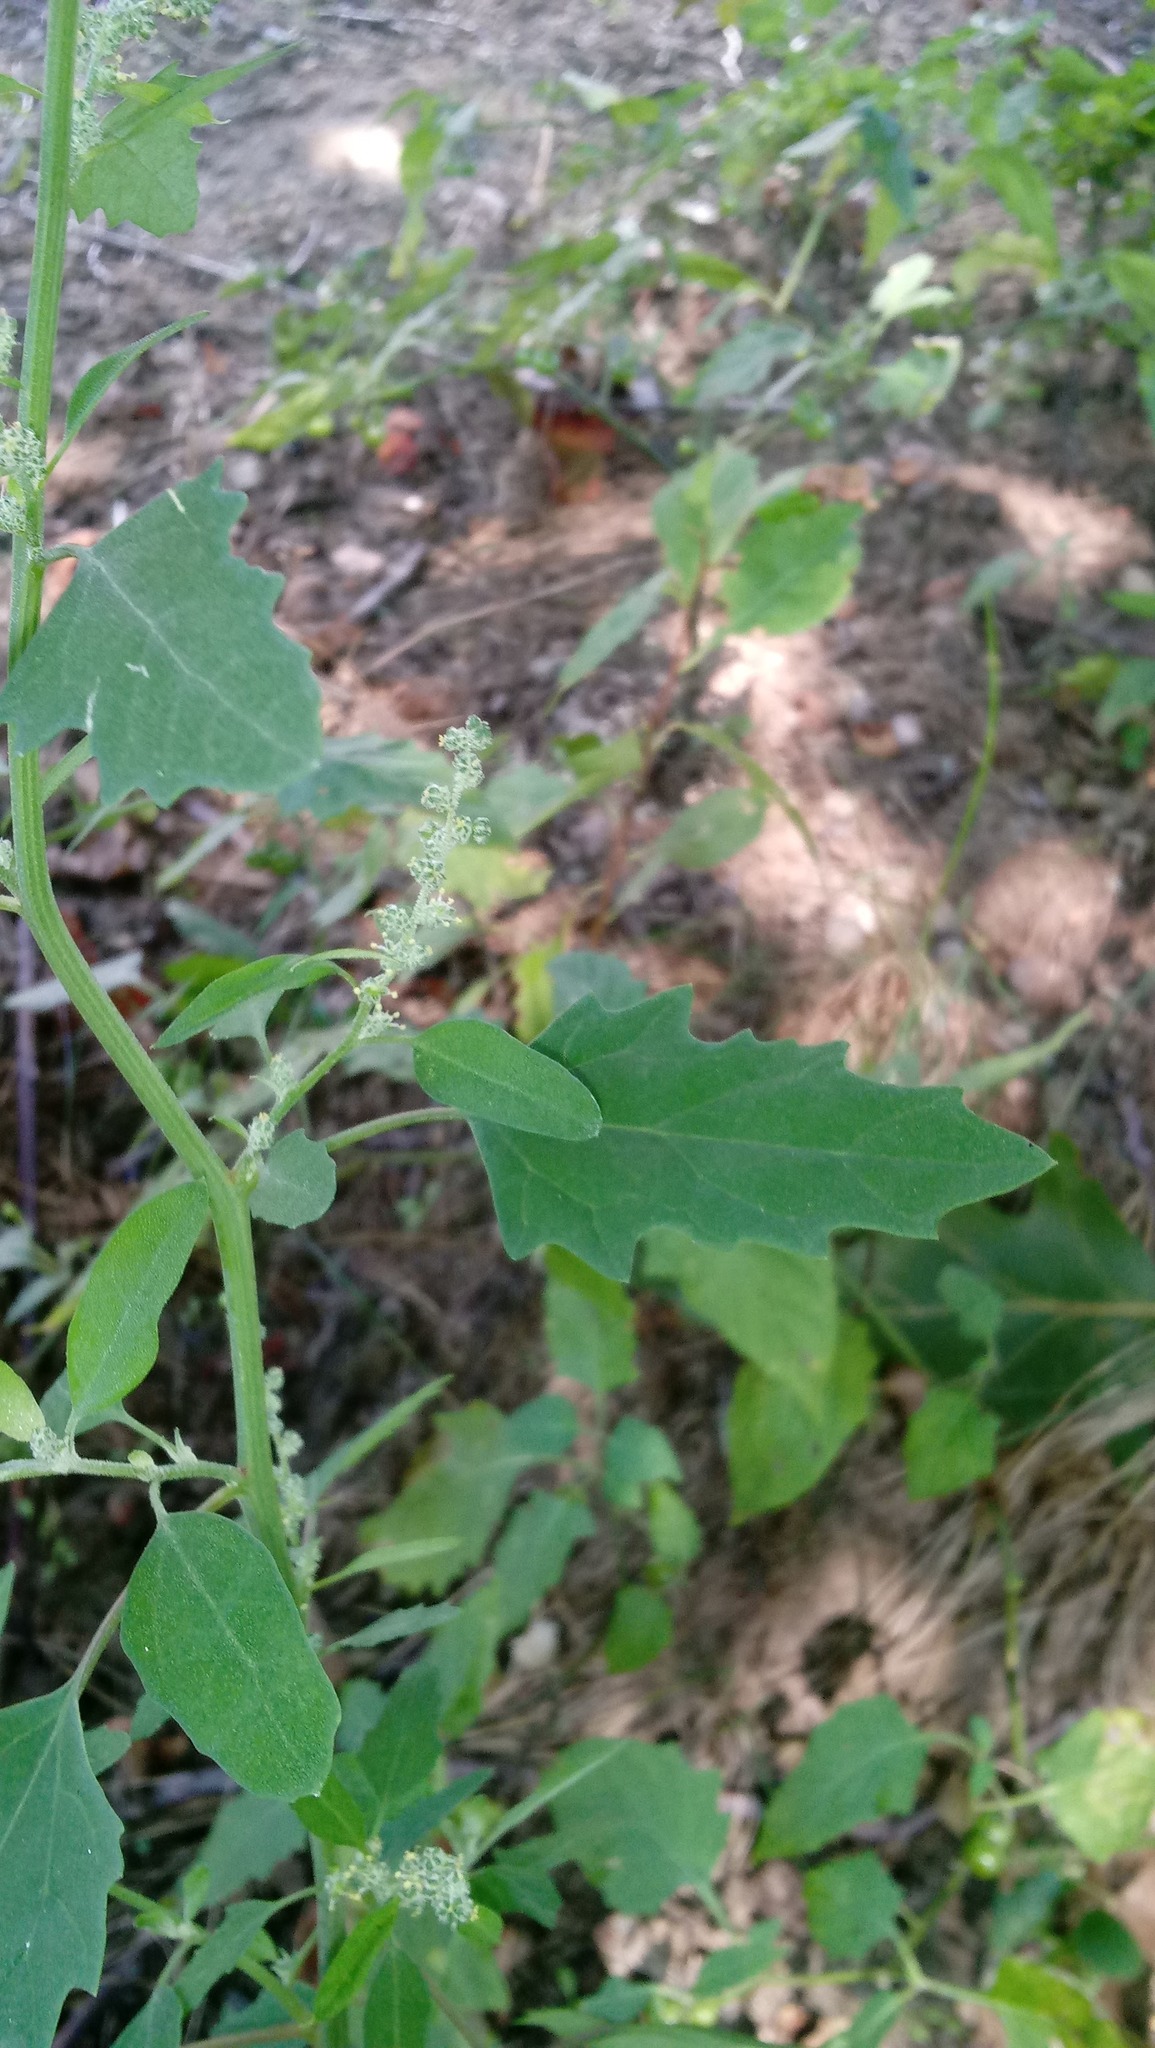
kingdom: Plantae
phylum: Tracheophyta
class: Magnoliopsida
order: Caryophyllales
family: Amaranthaceae
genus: Chenopodium
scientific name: Chenopodium album
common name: Fat-hen
